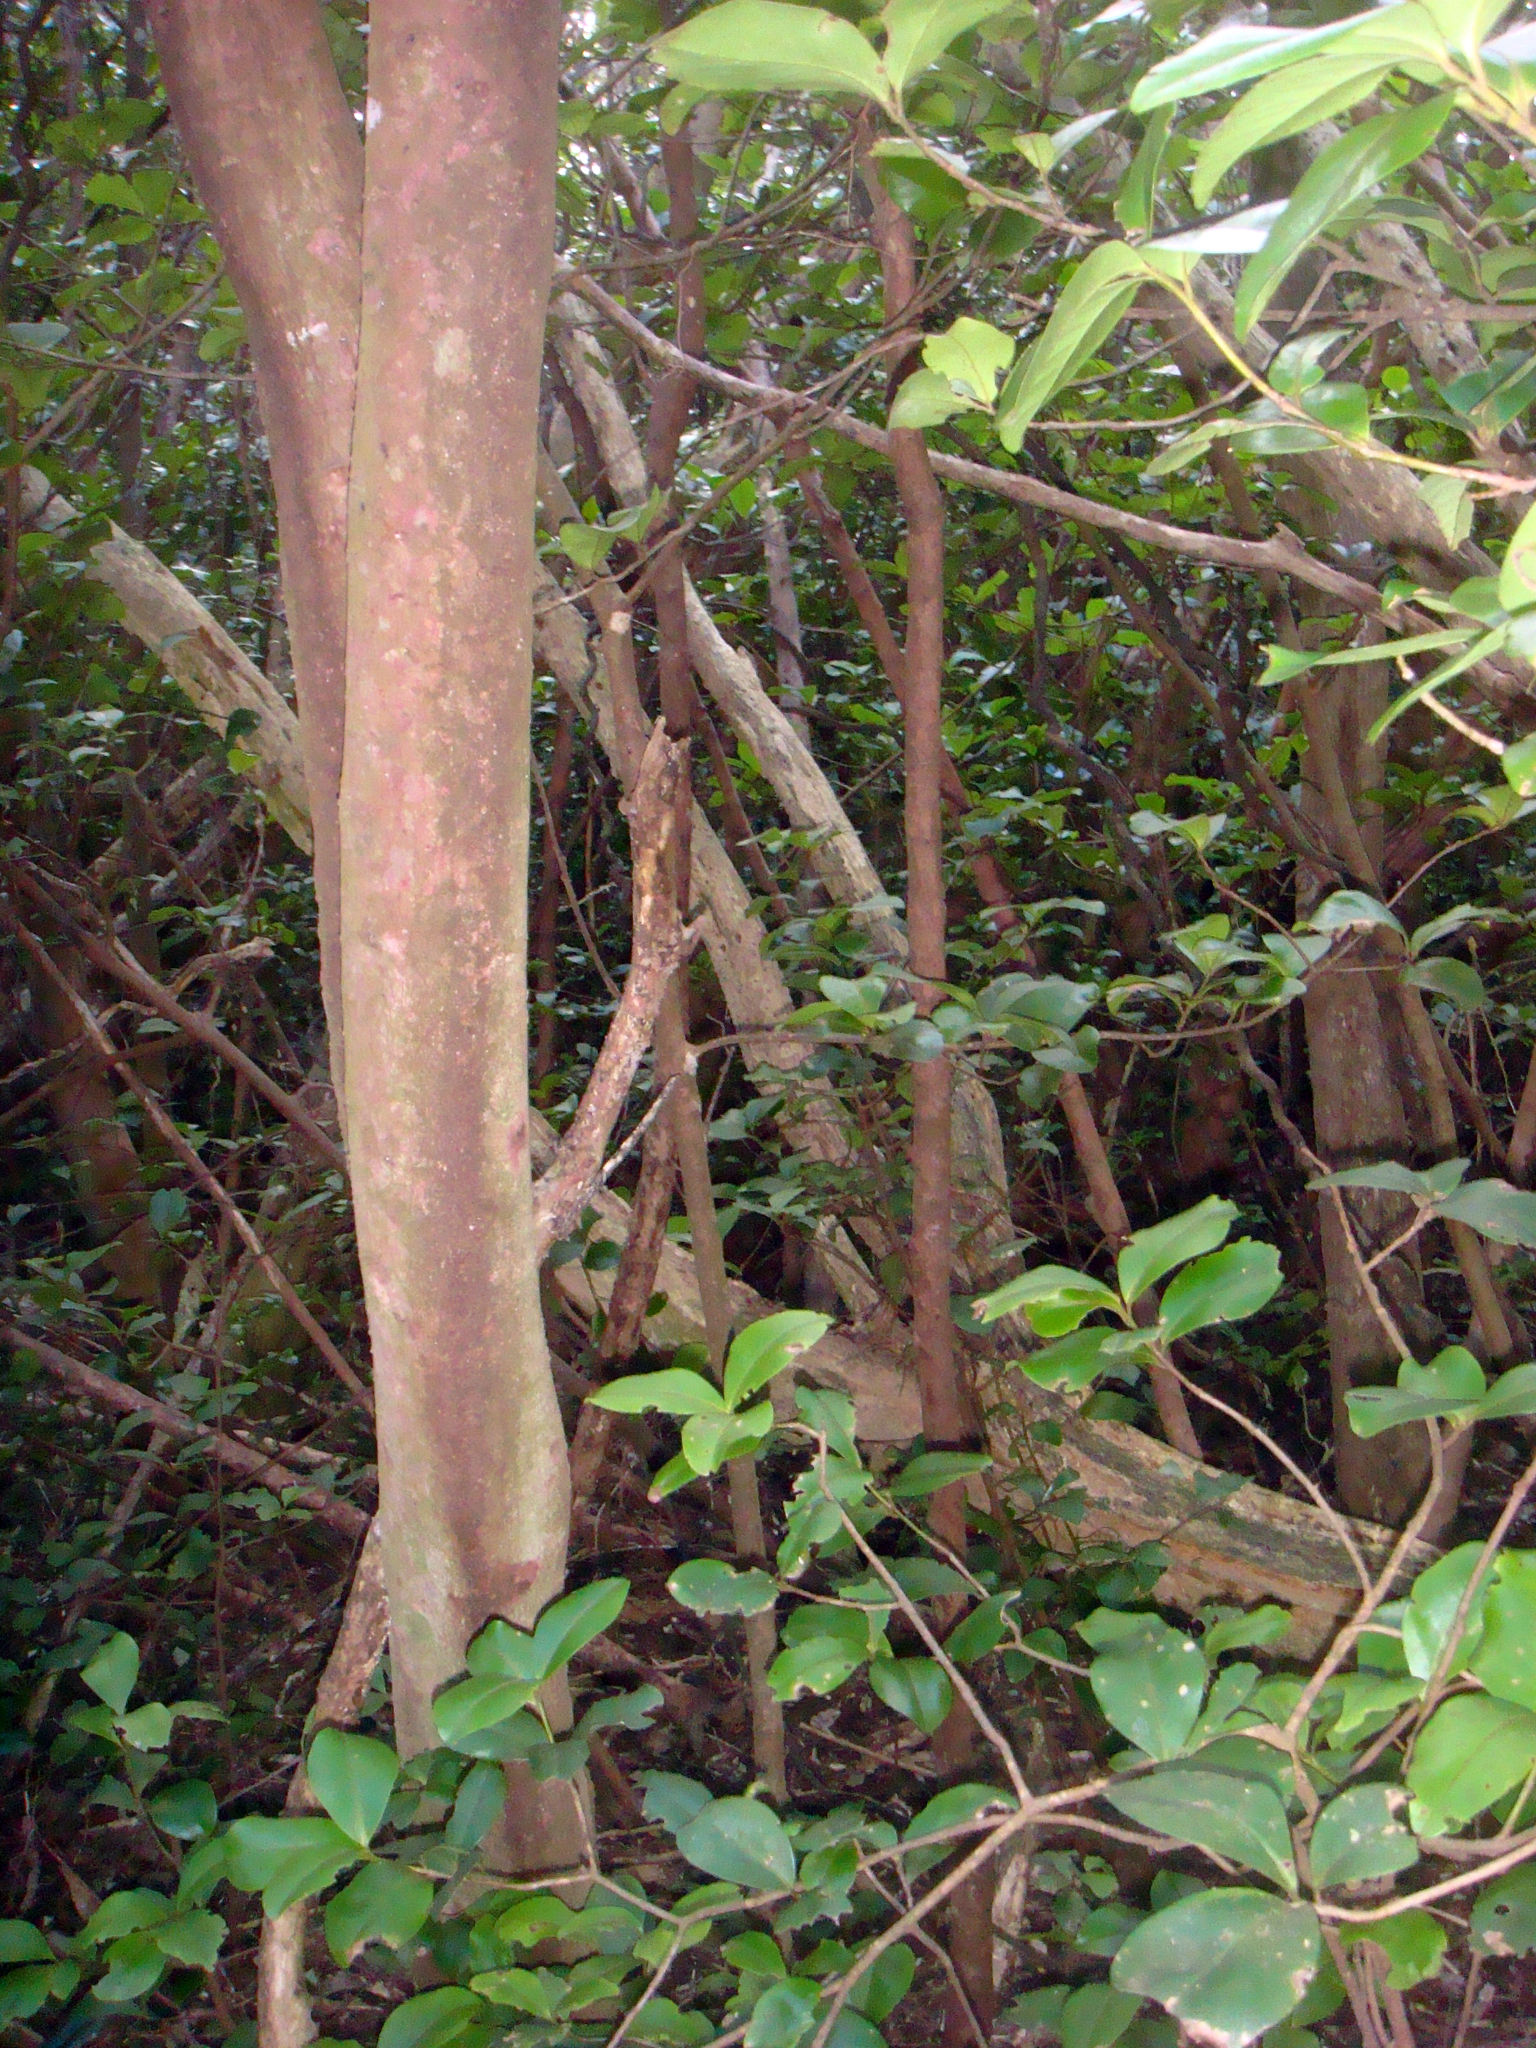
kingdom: Plantae
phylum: Tracheophyta
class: Magnoliopsida
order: Gentianales
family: Rubiaceae
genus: Coprosma
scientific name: Coprosma chathamica
